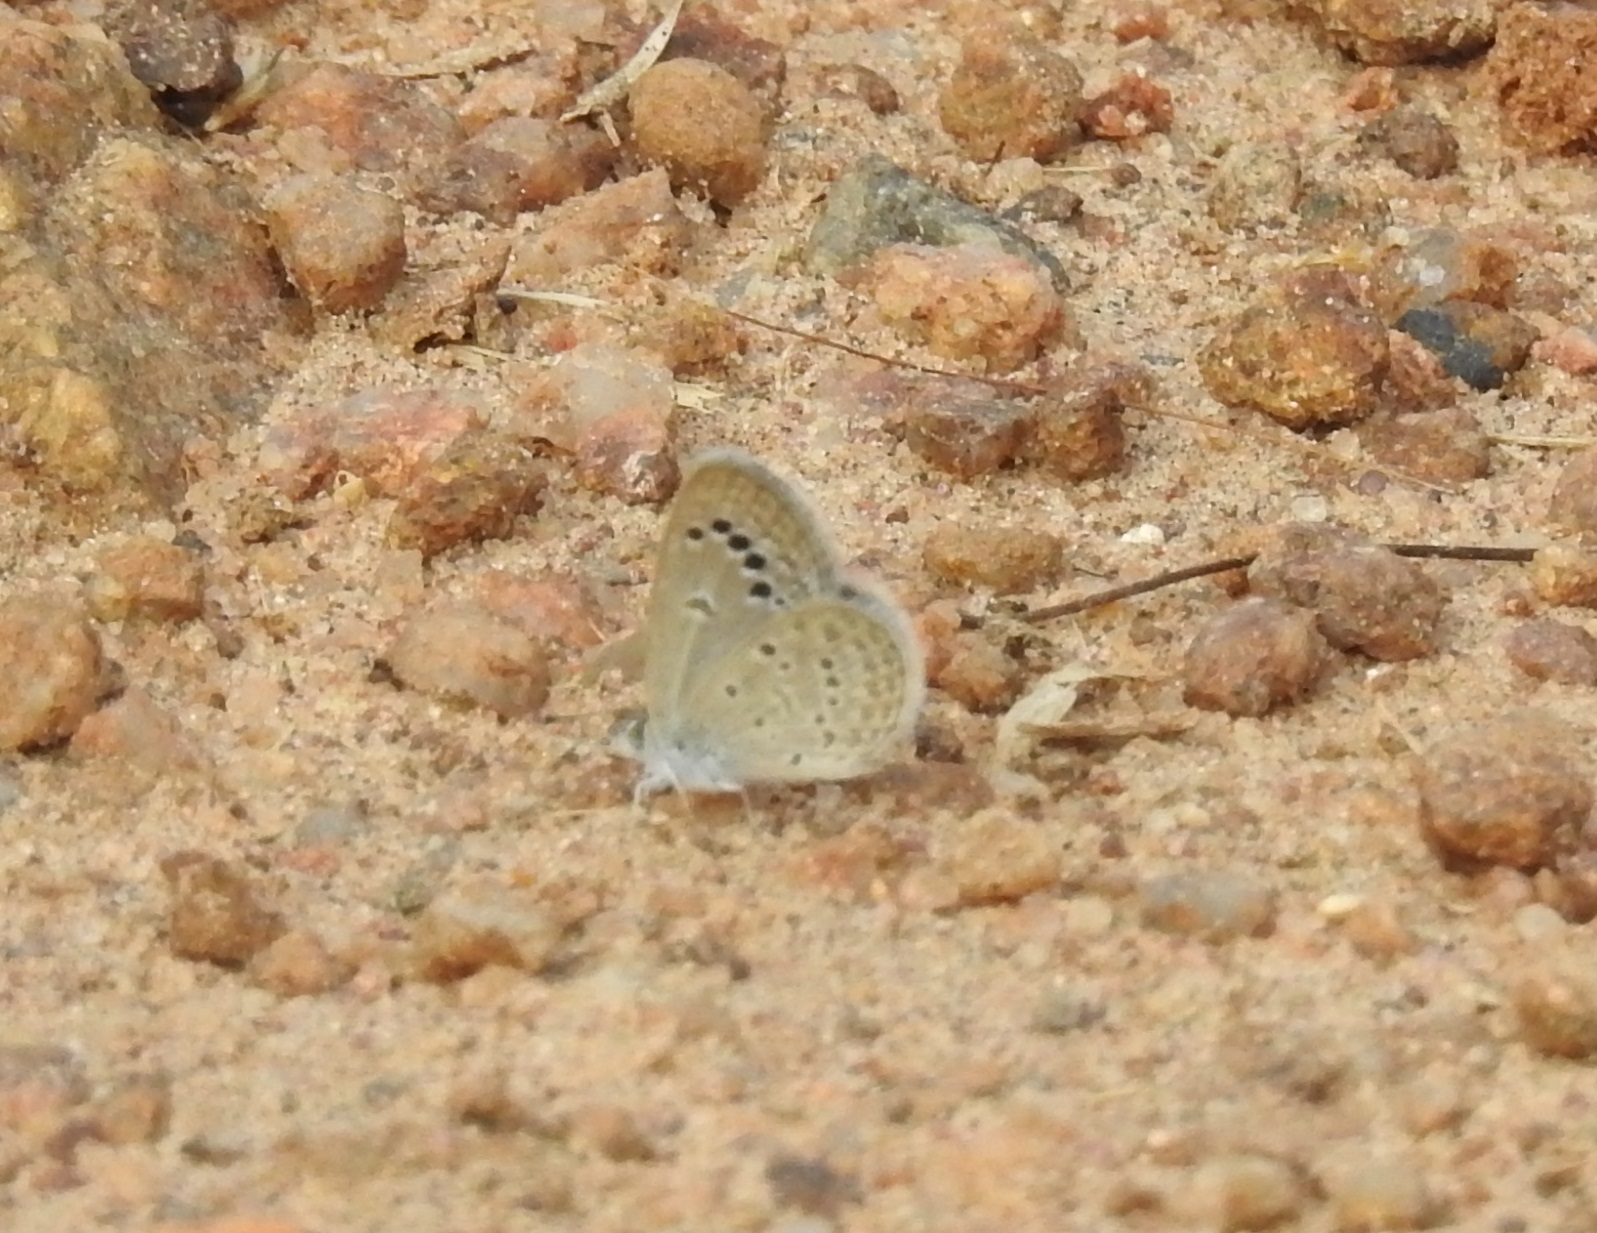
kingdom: Animalia
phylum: Arthropoda
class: Insecta
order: Lepidoptera
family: Lycaenidae
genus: Zizina
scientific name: Zizina otis
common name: Lesser grass blue
